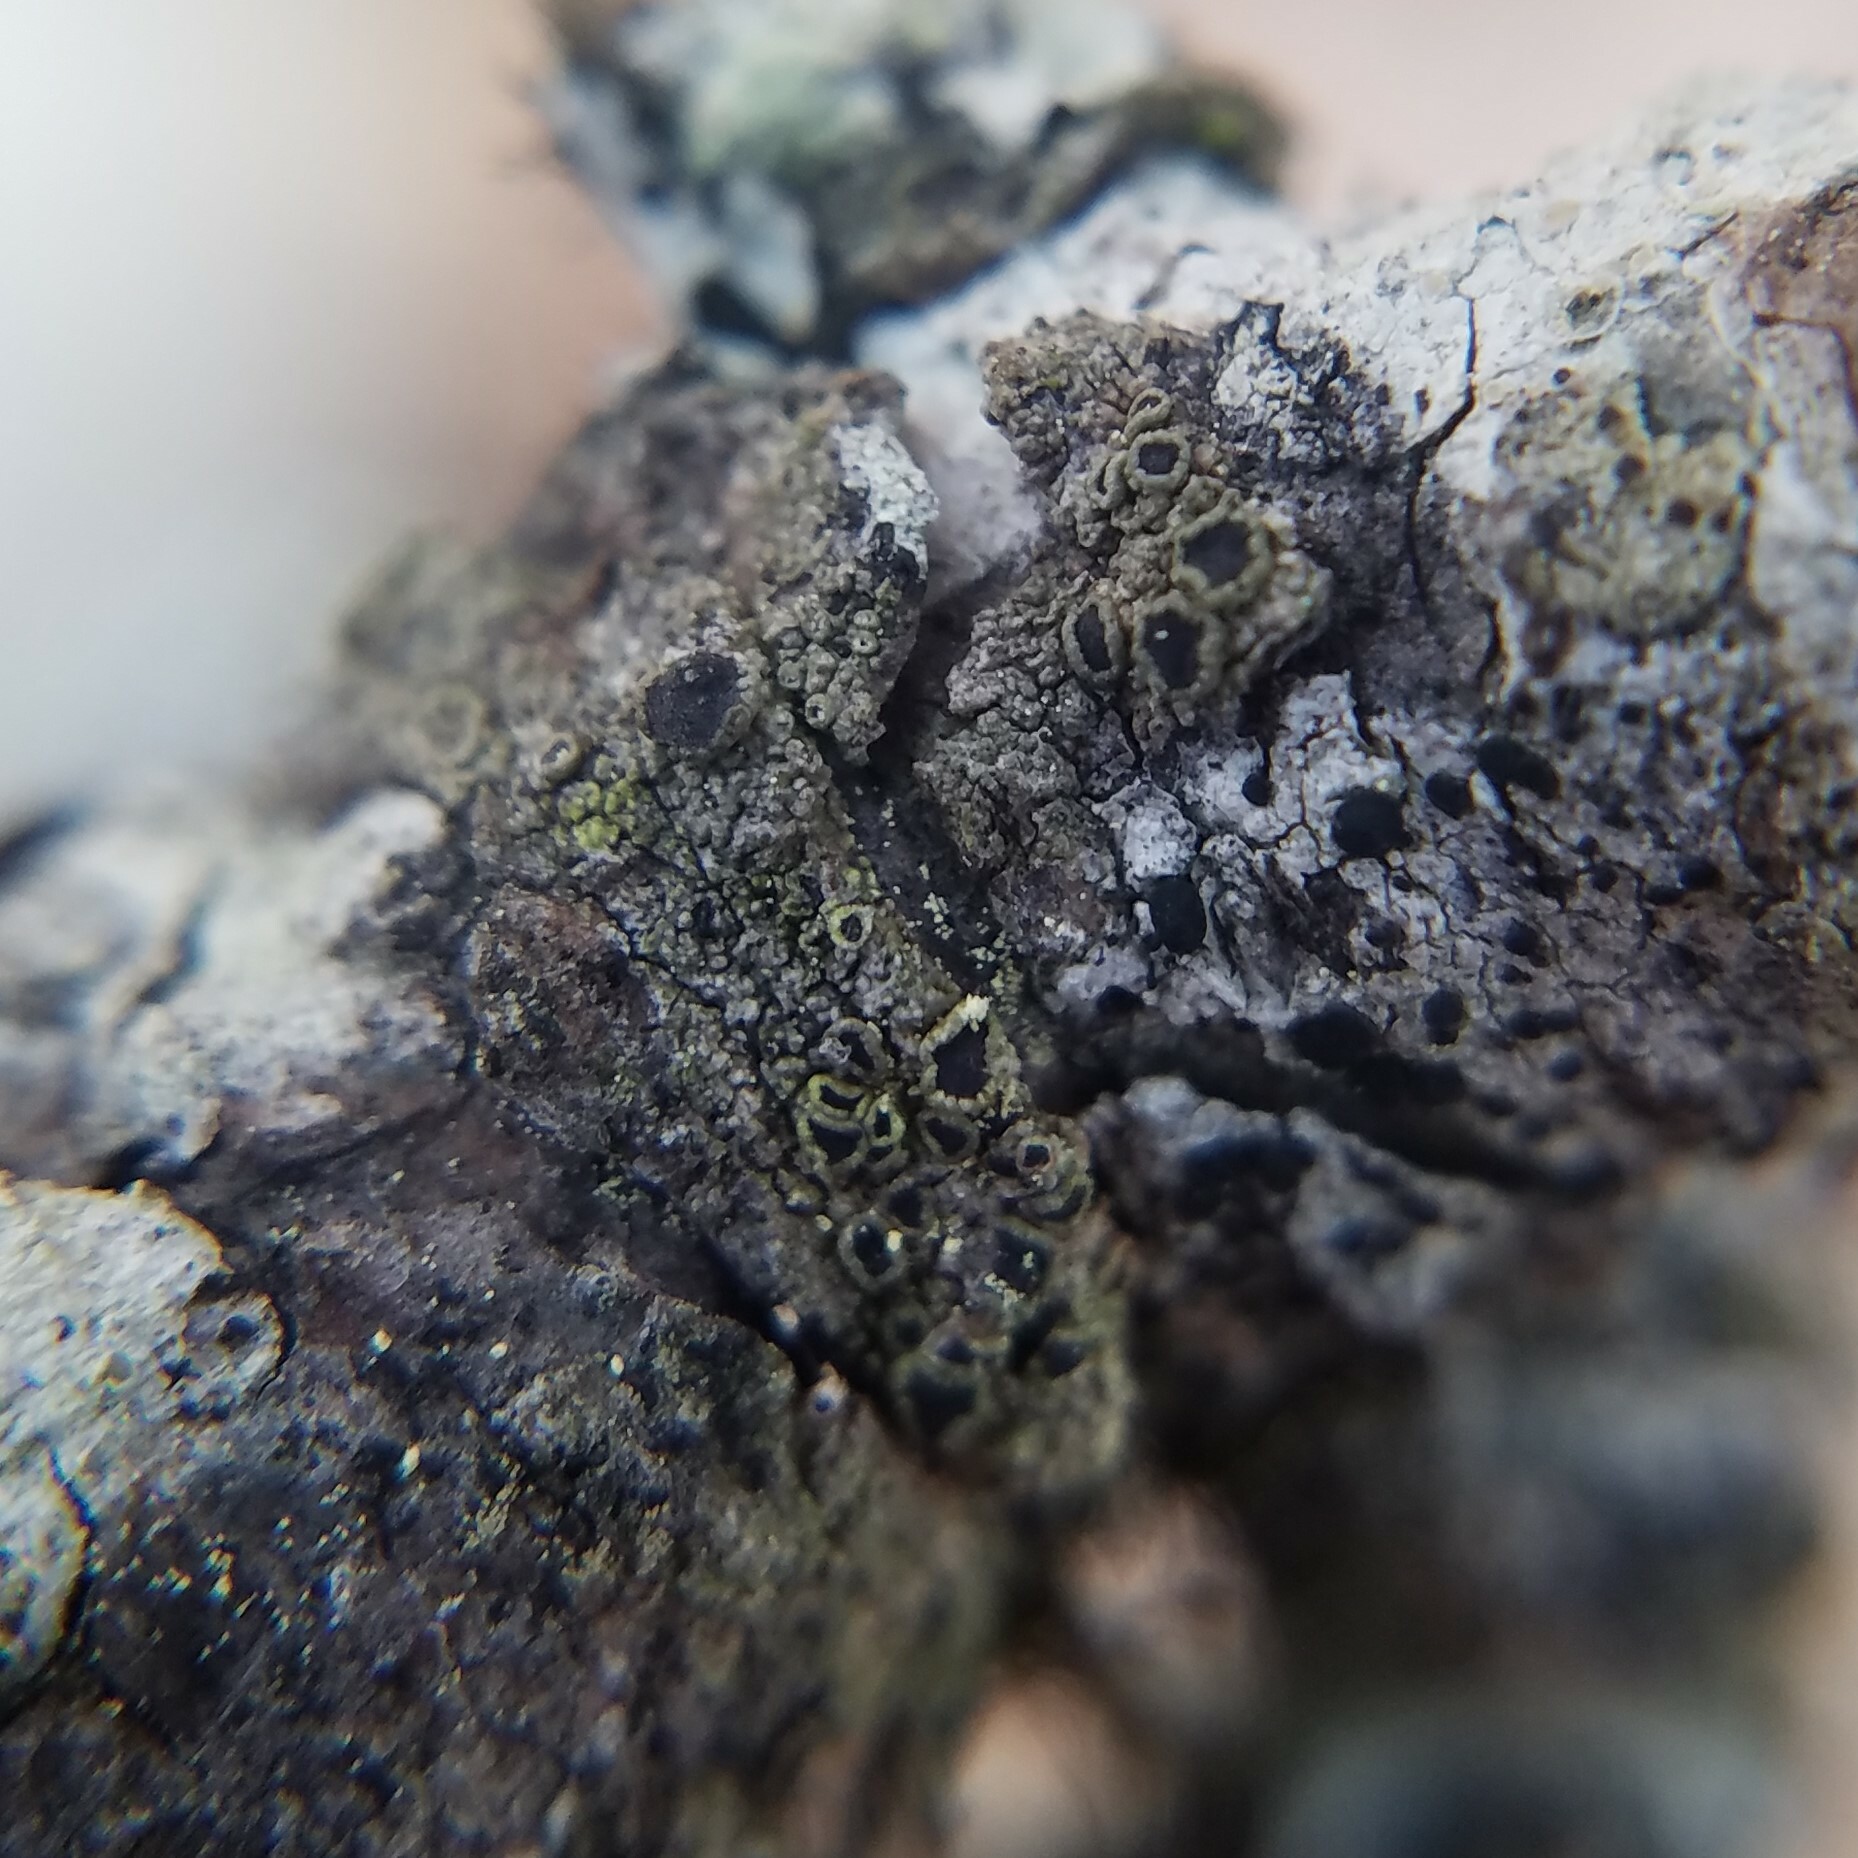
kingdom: Fungi
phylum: Ascomycota
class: Lecanoromycetes
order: Umbilicariales
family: Fuscideaceae
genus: Maronea
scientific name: Maronea polyphaea
